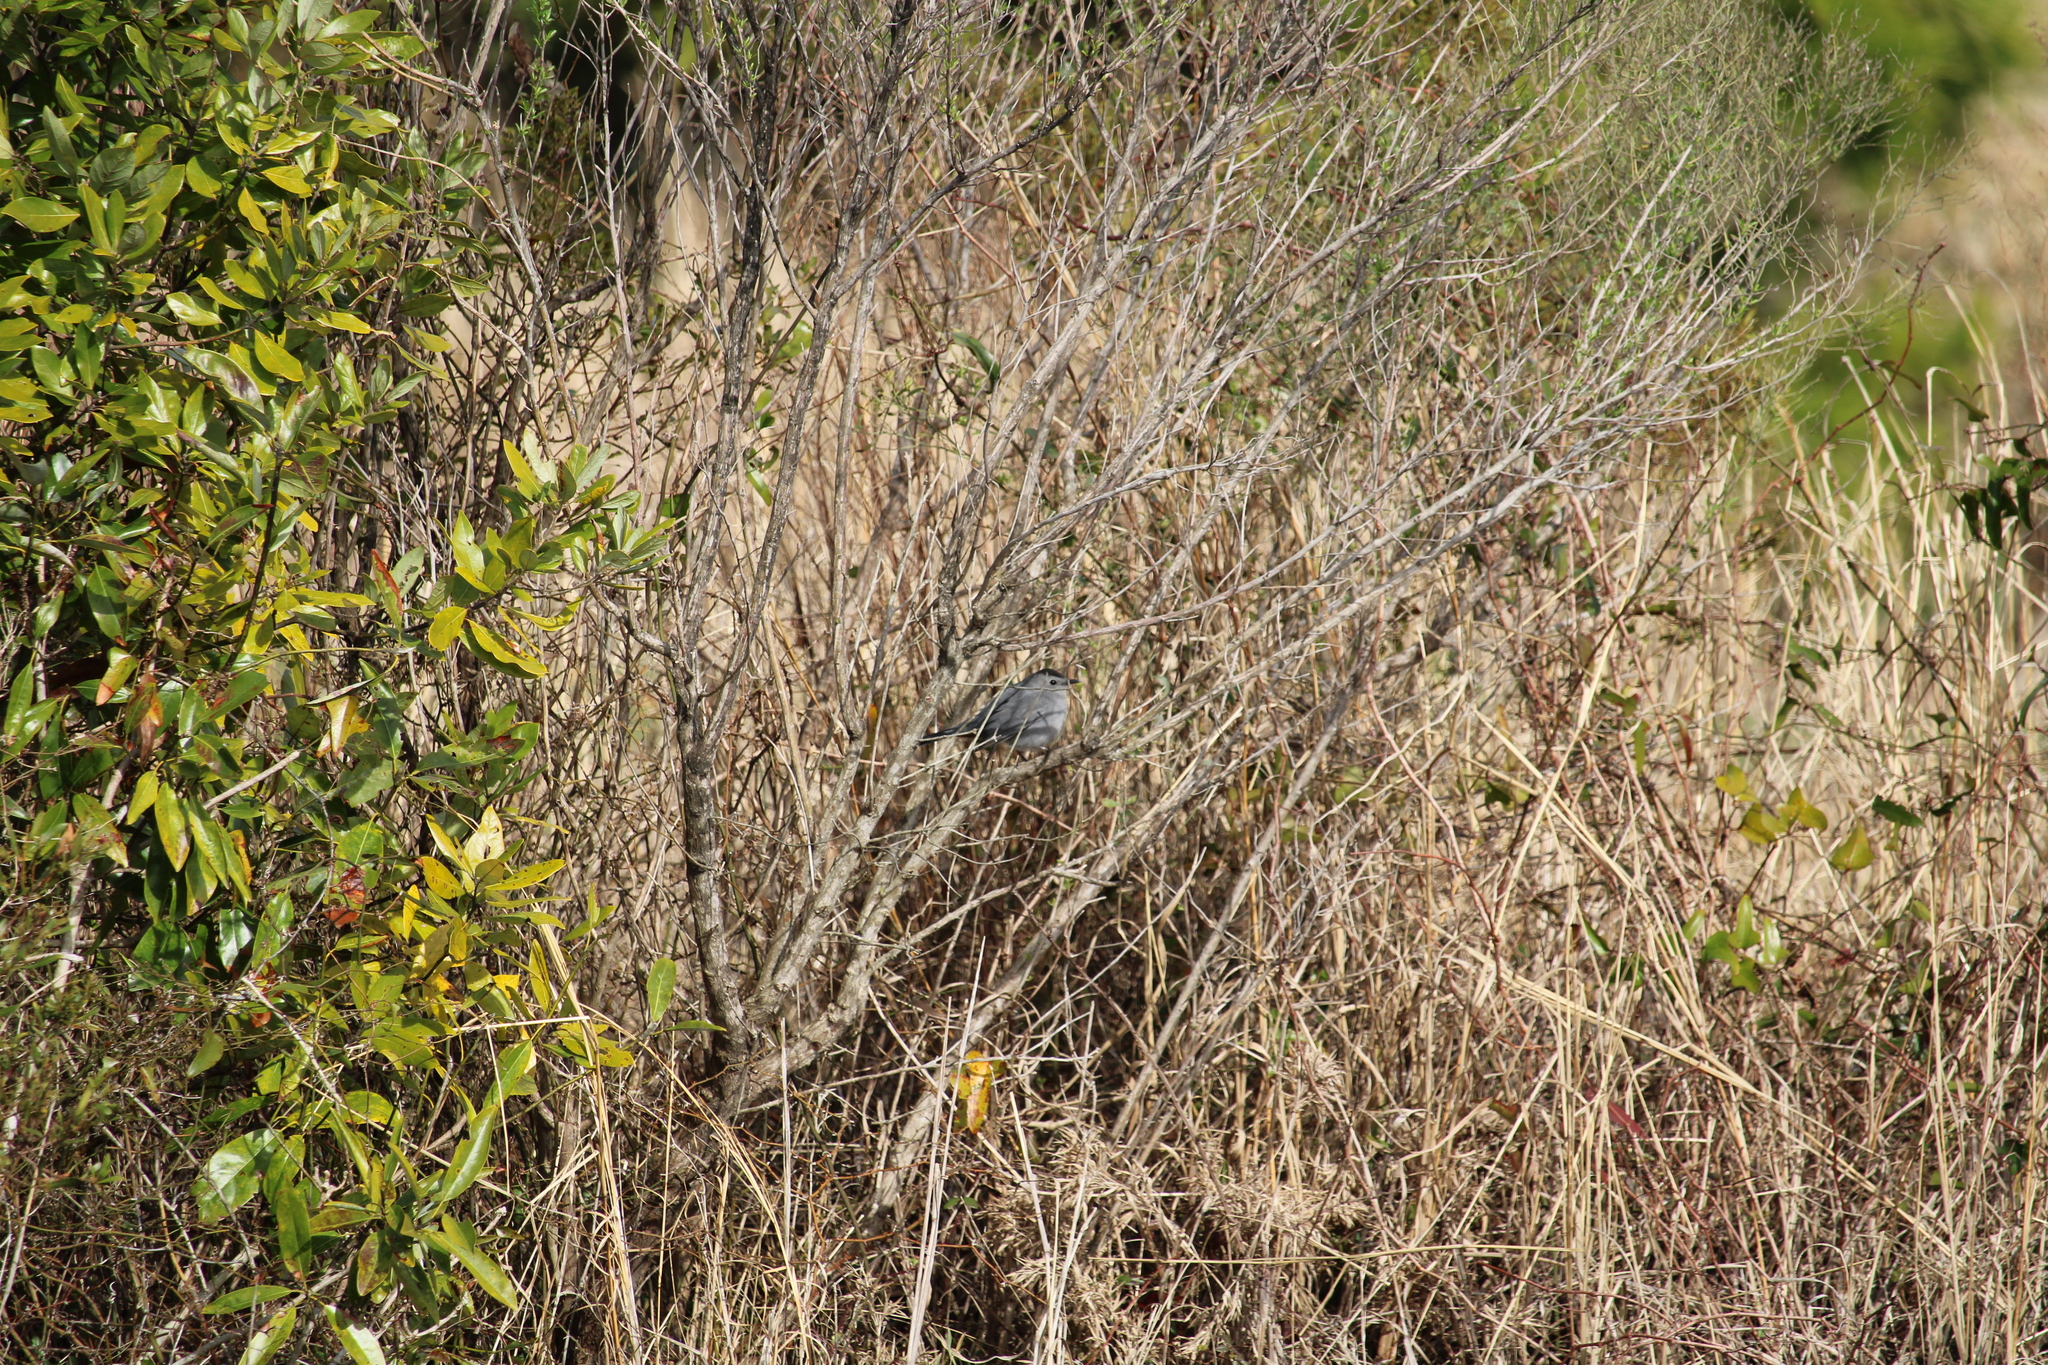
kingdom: Animalia
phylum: Chordata
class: Aves
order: Passeriformes
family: Mimidae
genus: Dumetella
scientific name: Dumetella carolinensis
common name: Gray catbird
